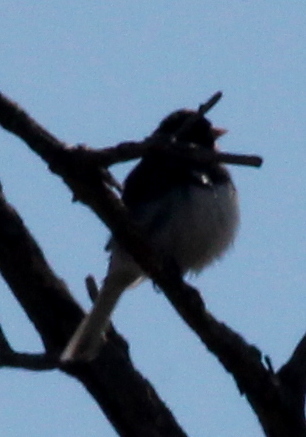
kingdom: Animalia
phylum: Chordata
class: Aves
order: Passeriformes
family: Passerellidae
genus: Junco
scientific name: Junco hyemalis
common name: Dark-eyed junco
